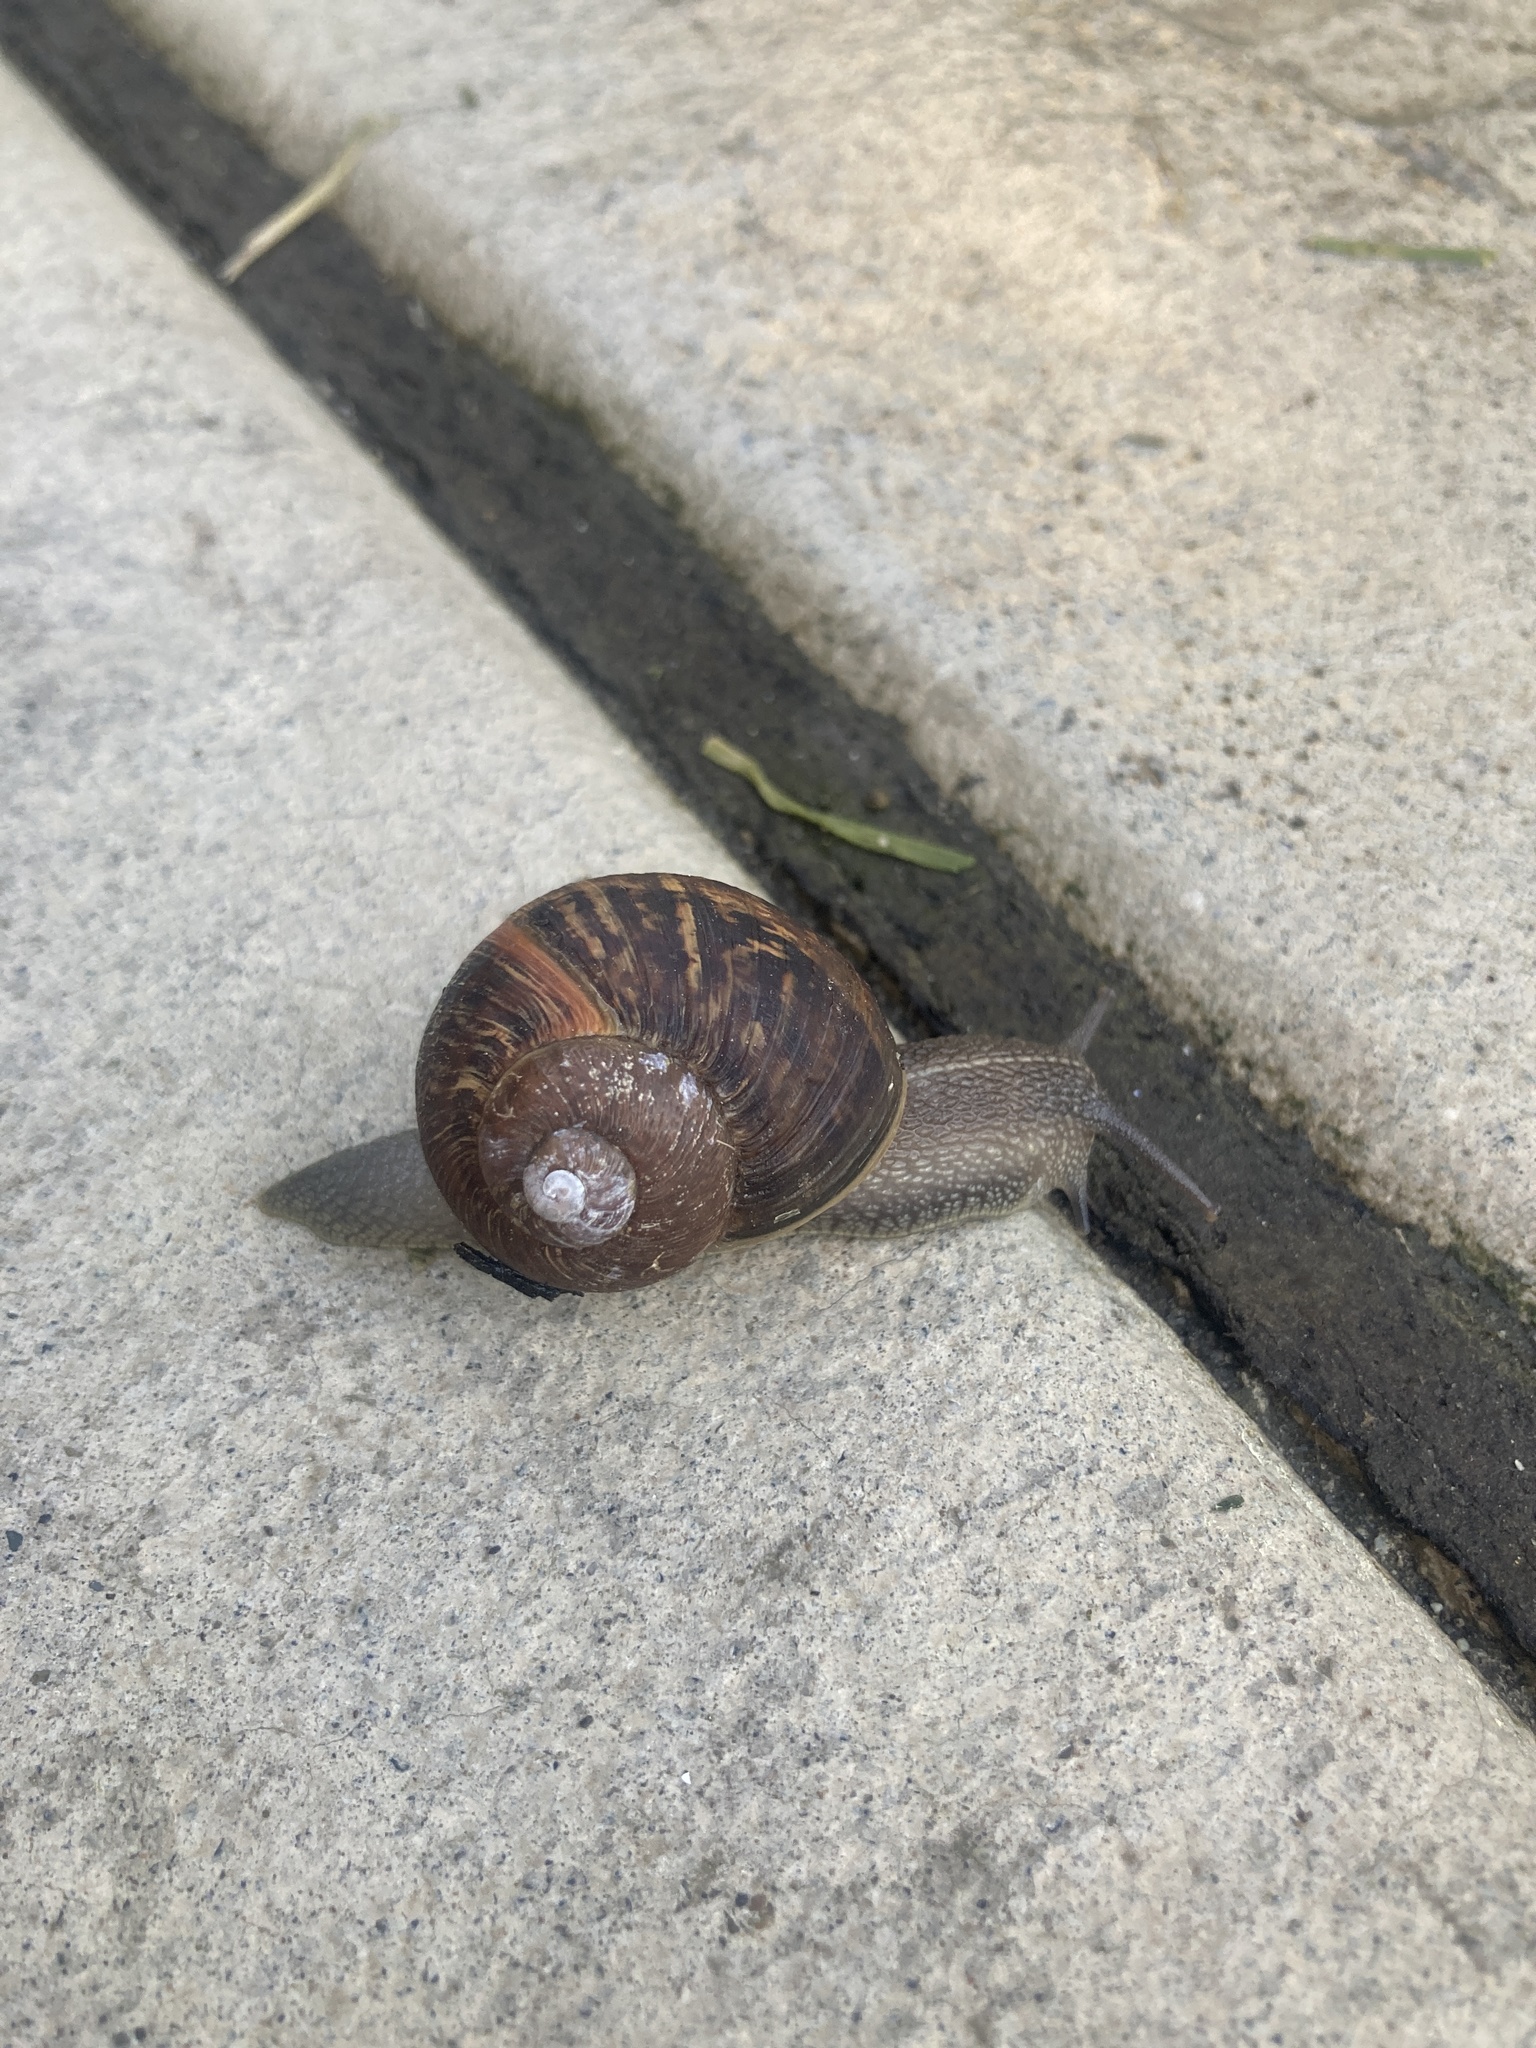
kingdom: Animalia
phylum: Mollusca
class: Gastropoda
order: Stylommatophora
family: Helicidae
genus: Cornu
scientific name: Cornu aspersum
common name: Brown garden snail
